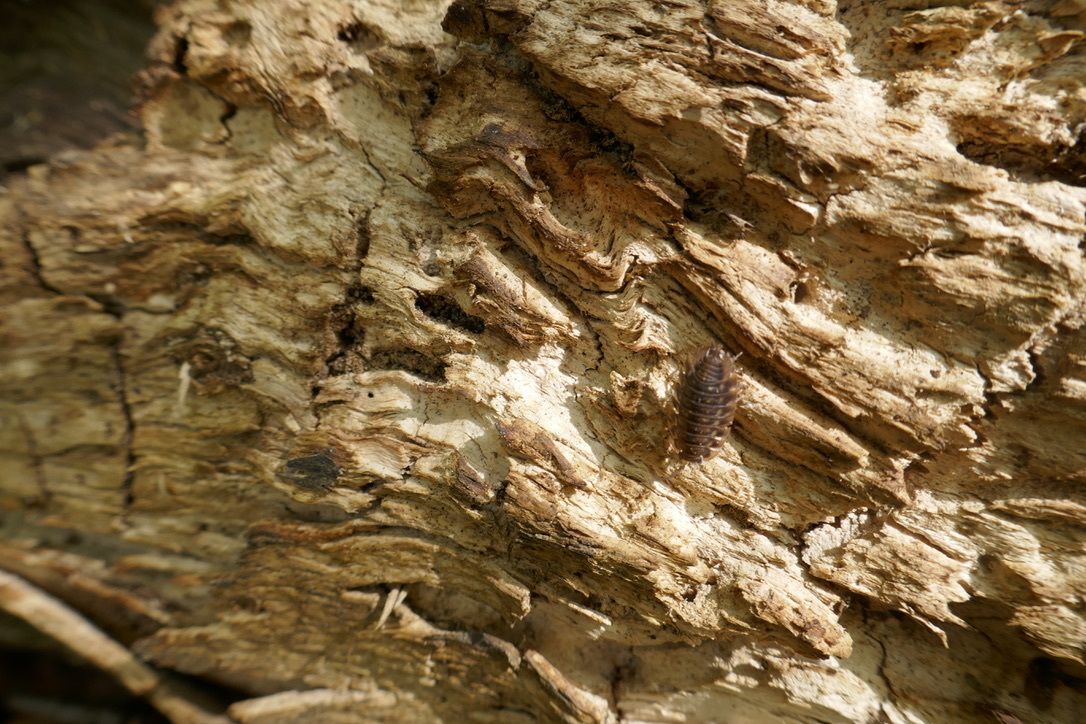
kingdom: Animalia
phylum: Arthropoda
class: Malacostraca
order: Isopoda
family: Oniscidae
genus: Oniscus
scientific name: Oniscus asellus
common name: Common shiny woodlouse
